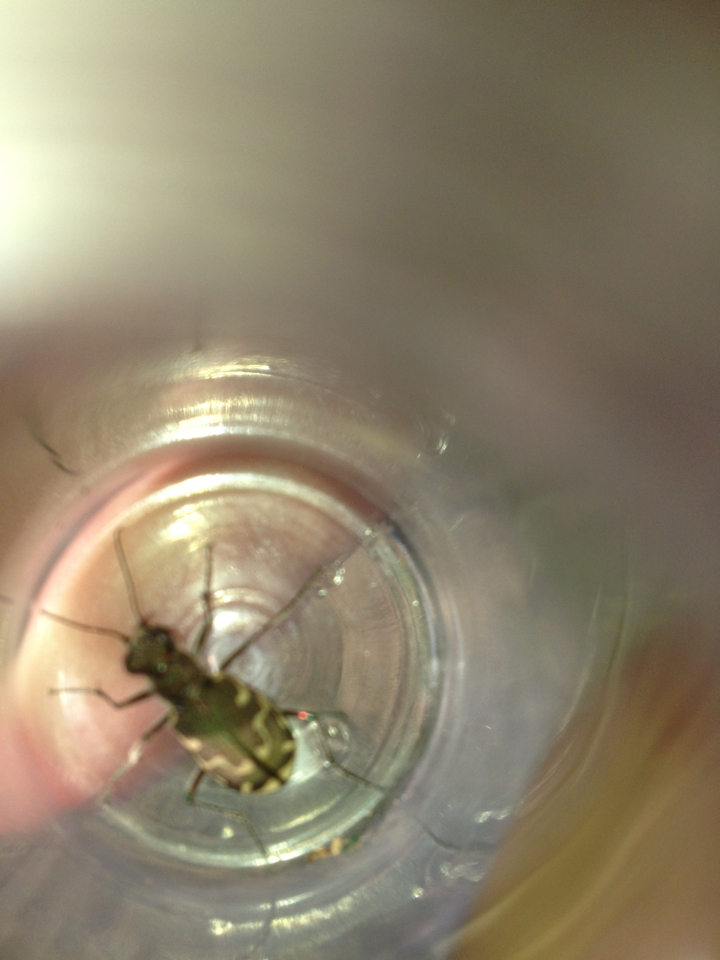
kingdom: Animalia
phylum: Arthropoda
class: Insecta
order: Coleoptera
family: Carabidae
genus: Cicindela
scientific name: Cicindela repanda
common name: Bronzed tiger beetle
